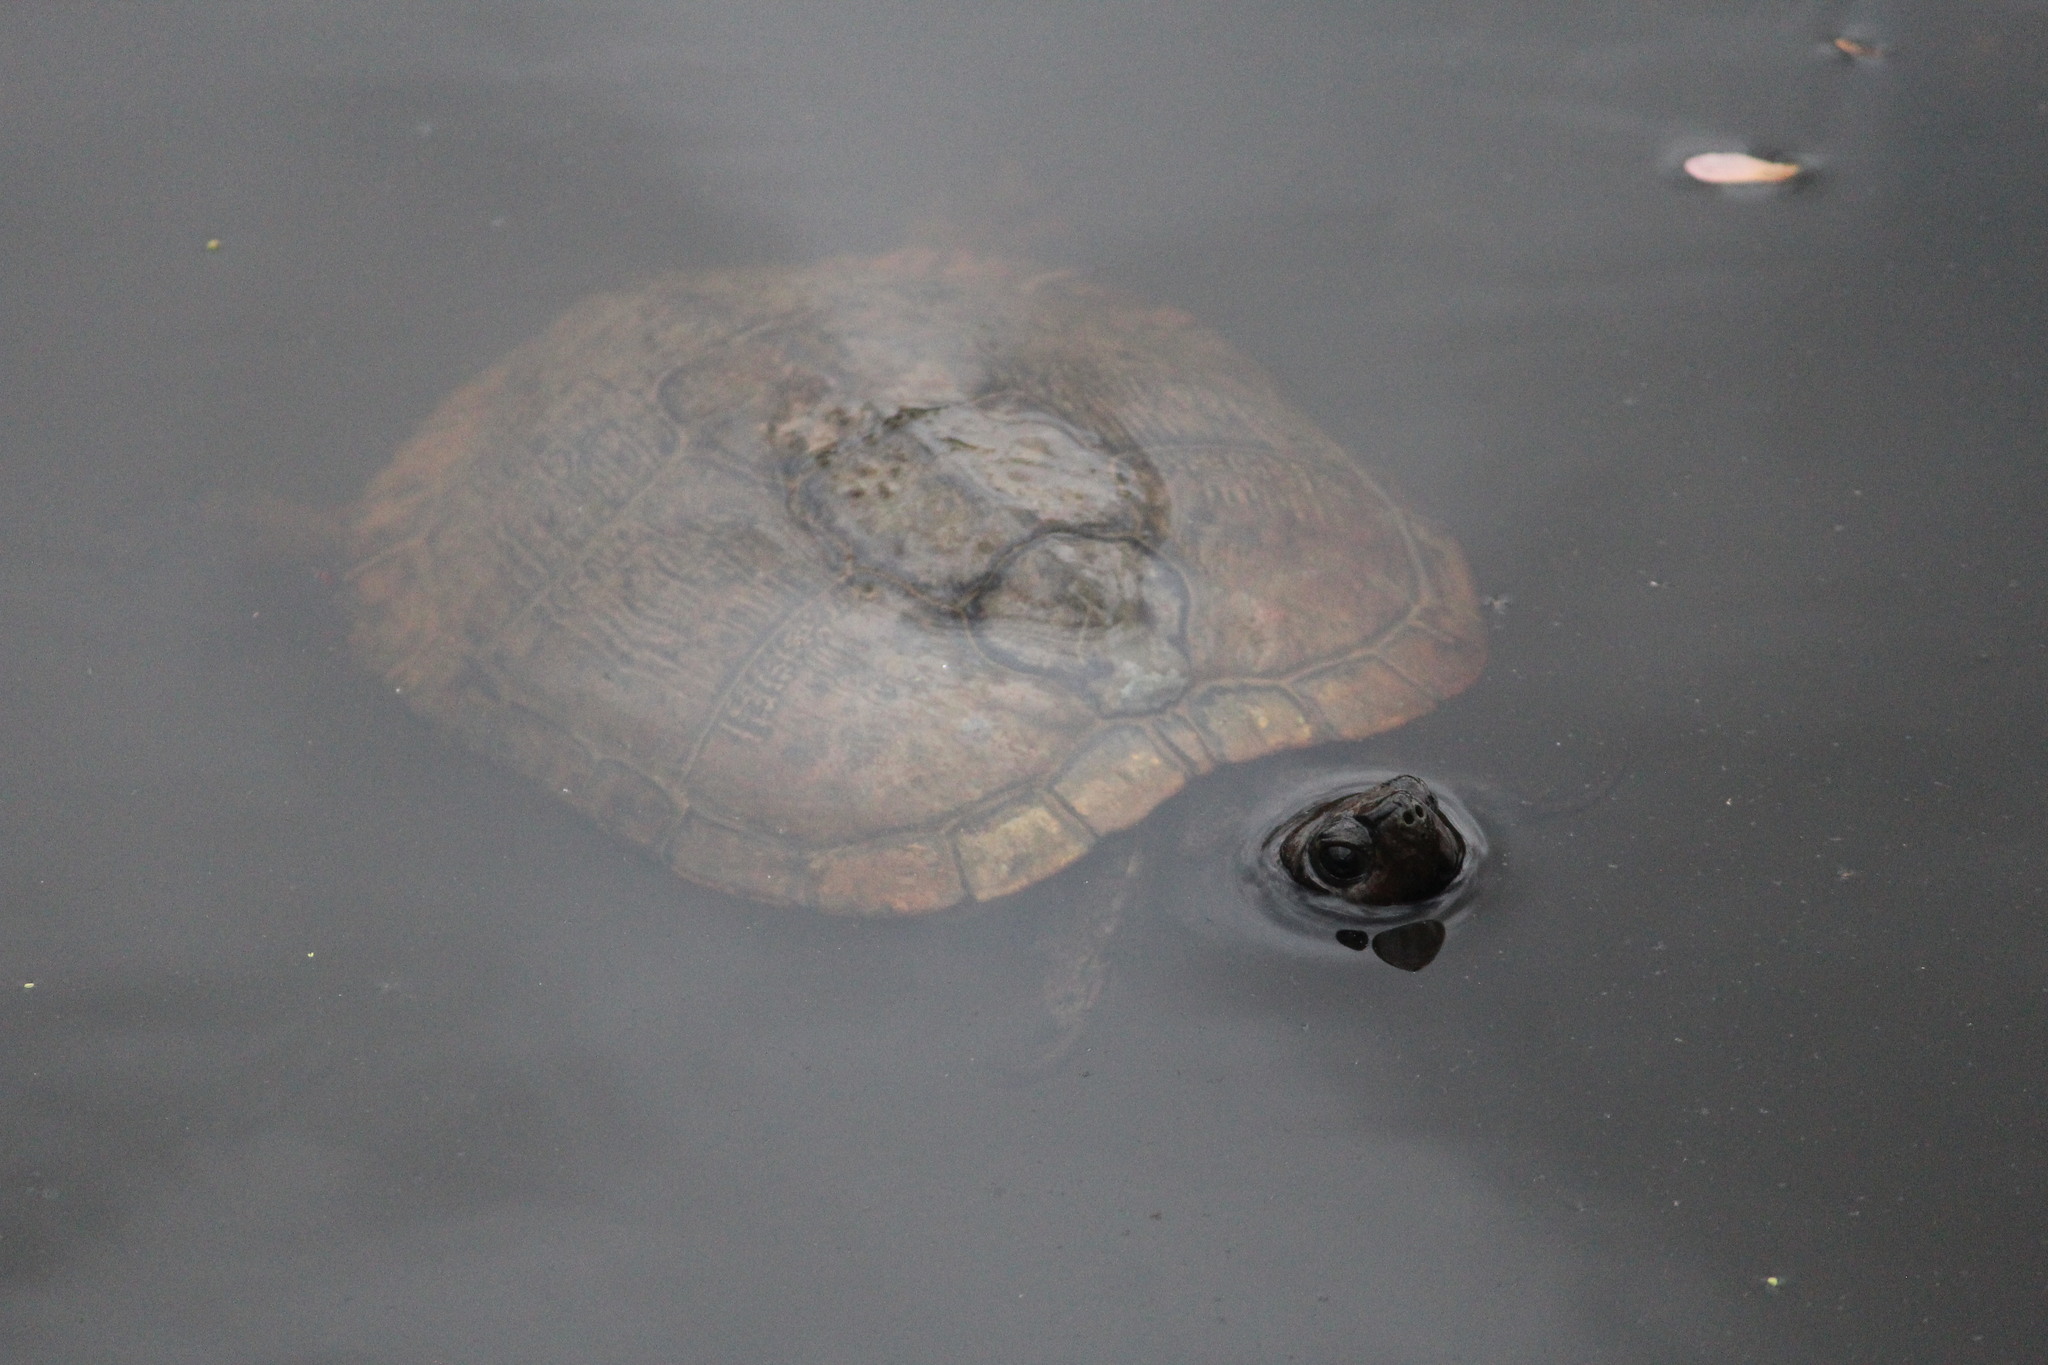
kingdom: Animalia
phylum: Chordata
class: Testudines
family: Emydidae
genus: Trachemys
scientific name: Trachemys scripta
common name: Slider
